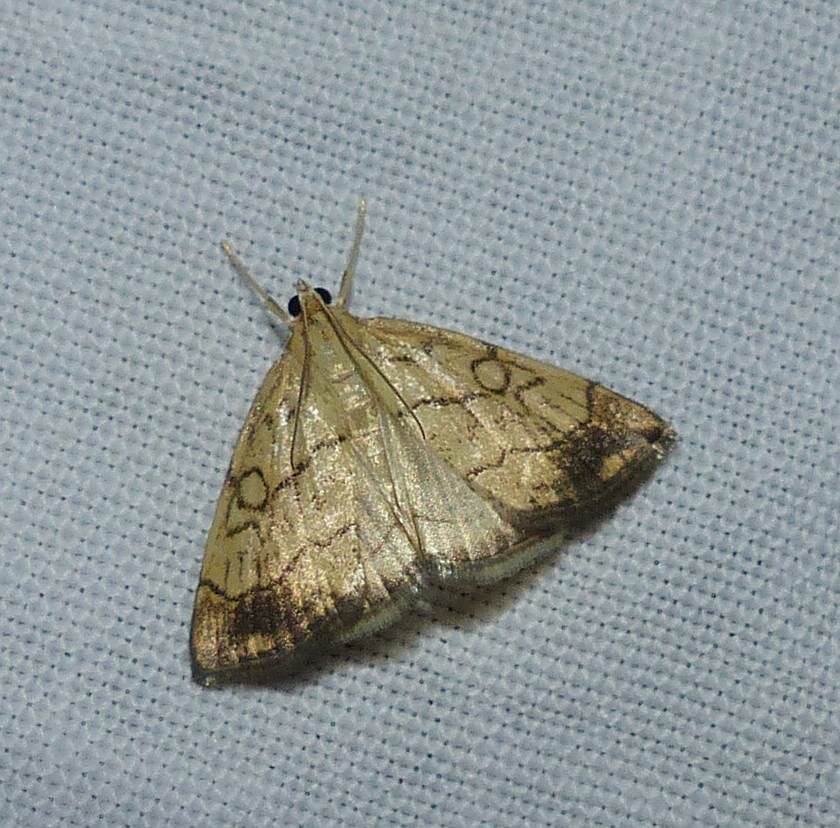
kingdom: Animalia
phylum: Arthropoda
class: Insecta
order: Lepidoptera
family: Crambidae
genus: Evergestis
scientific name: Evergestis pallidata
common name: Chequered pearl
